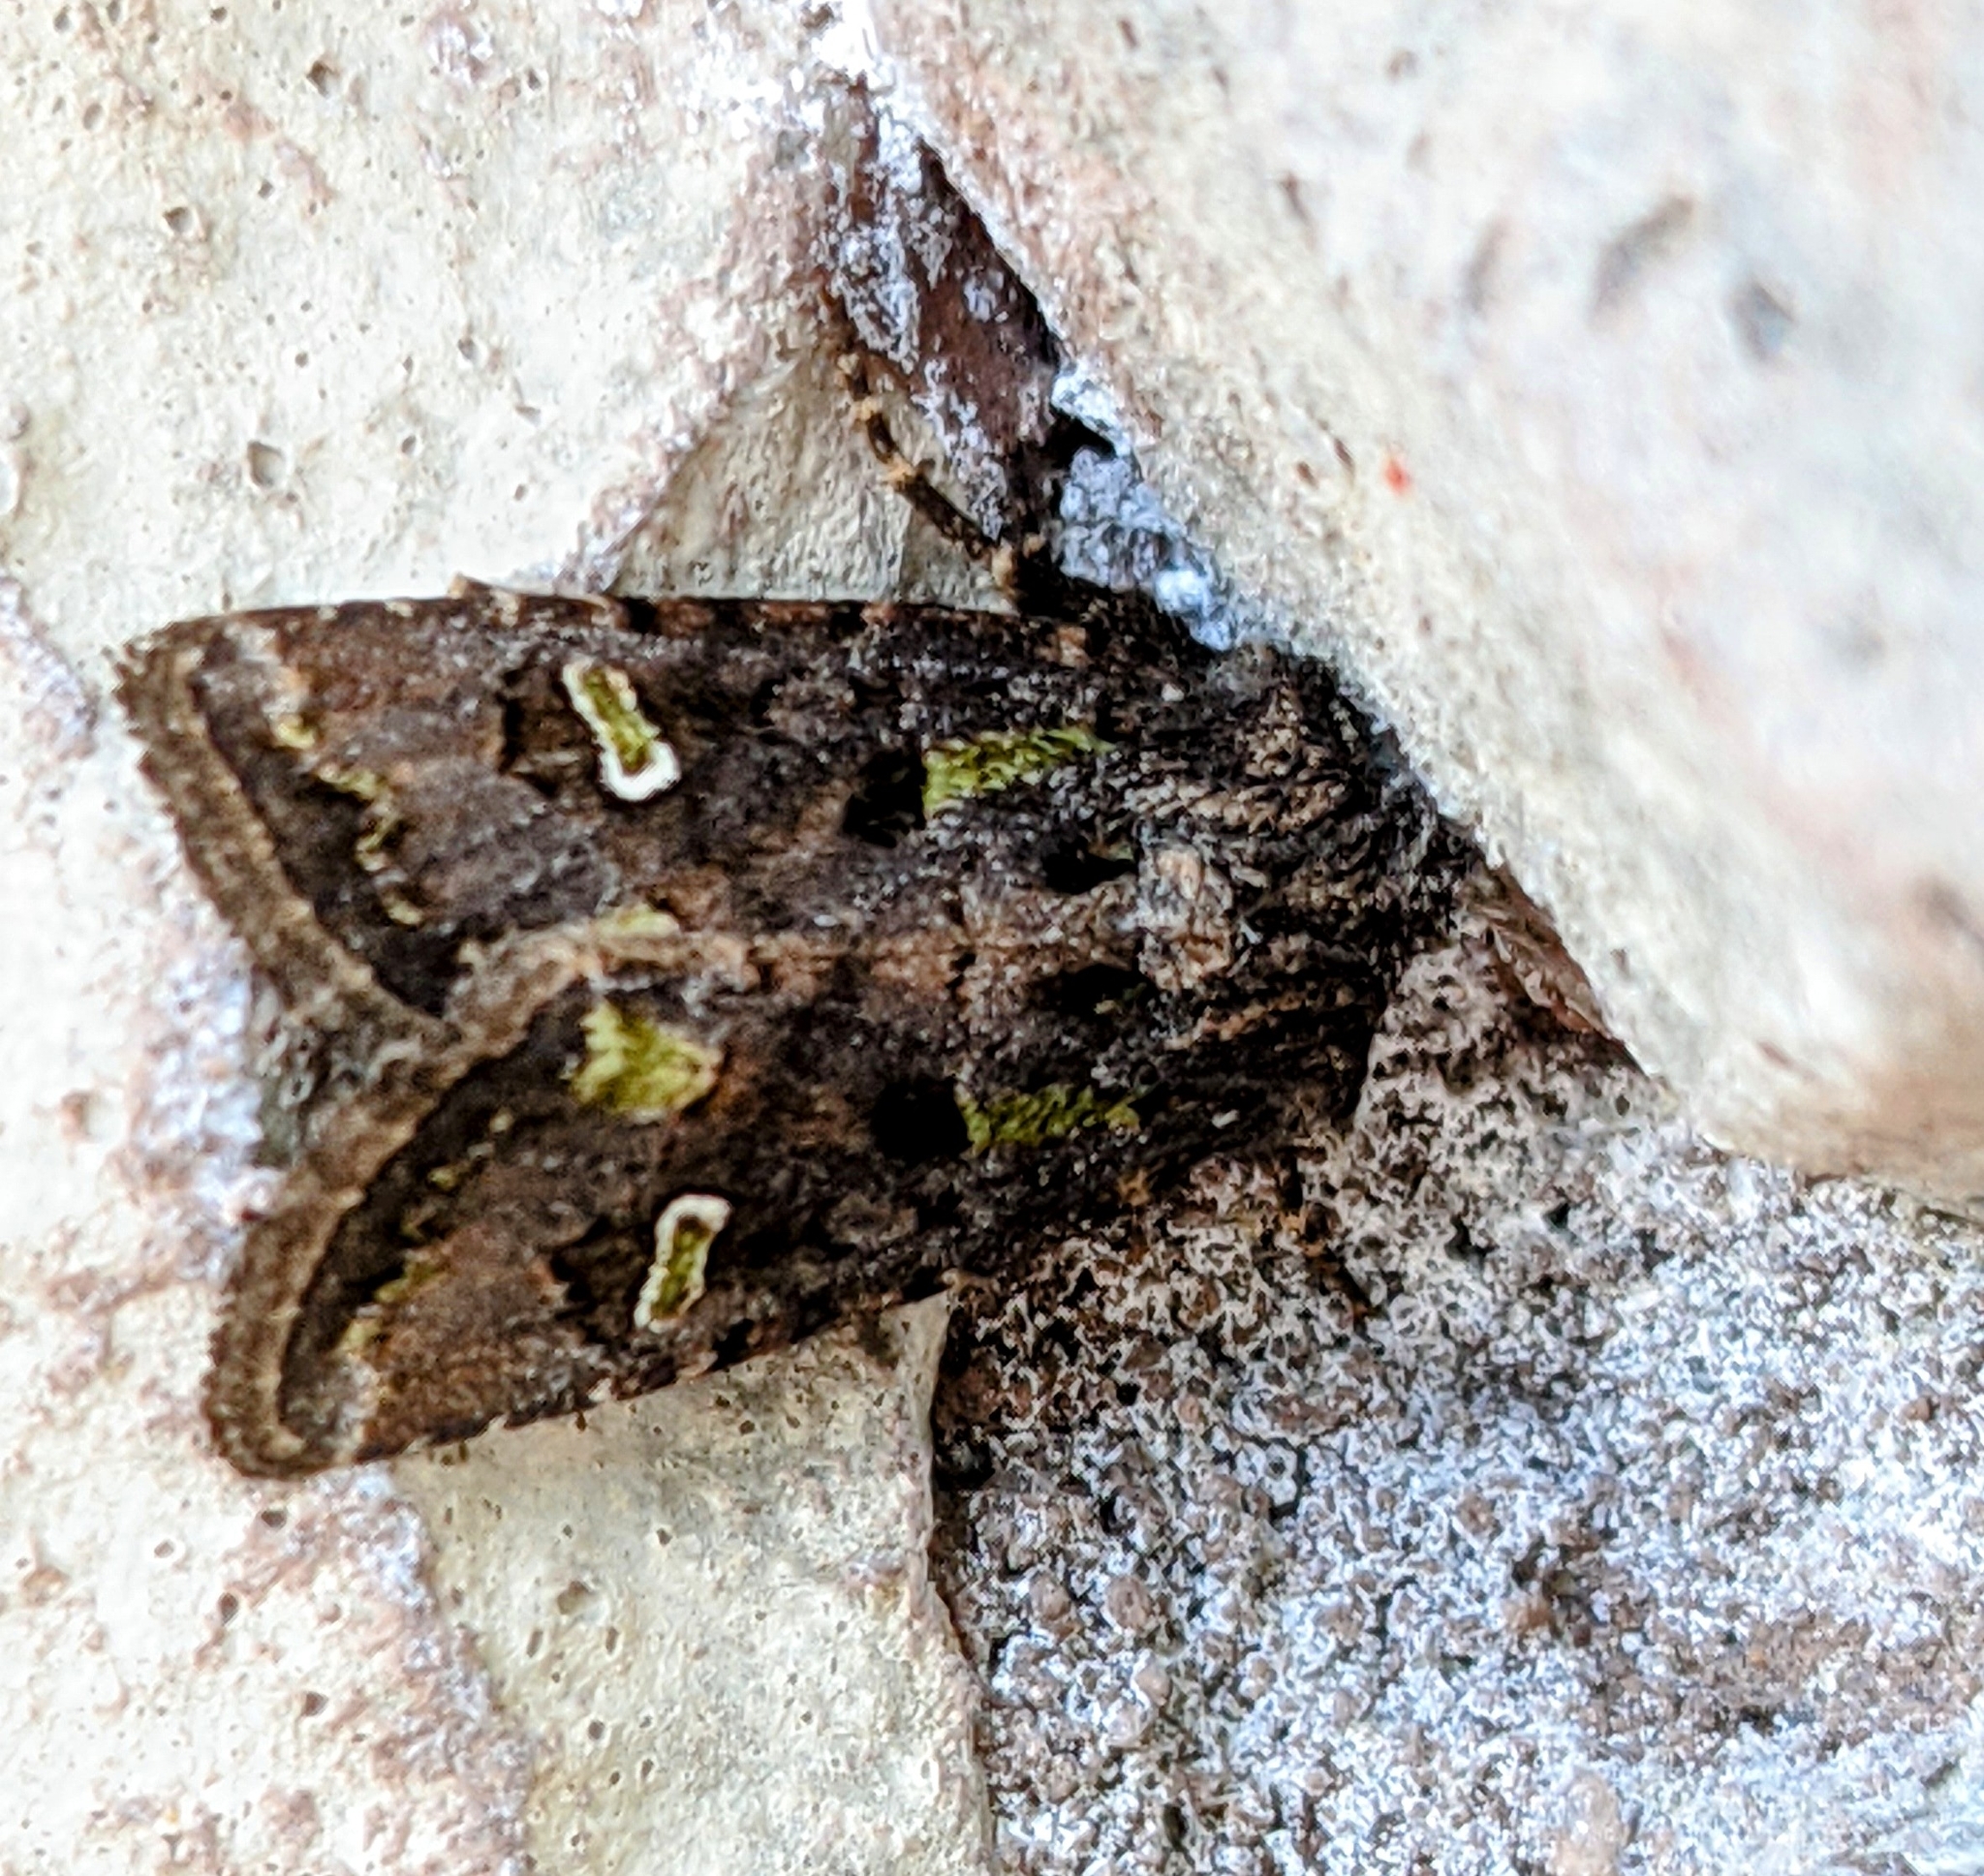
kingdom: Animalia
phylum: Arthropoda
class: Insecta
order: Lepidoptera
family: Noctuidae
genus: Lacinipolia
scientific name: Lacinipolia renigera
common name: Kidney-spotted minor
